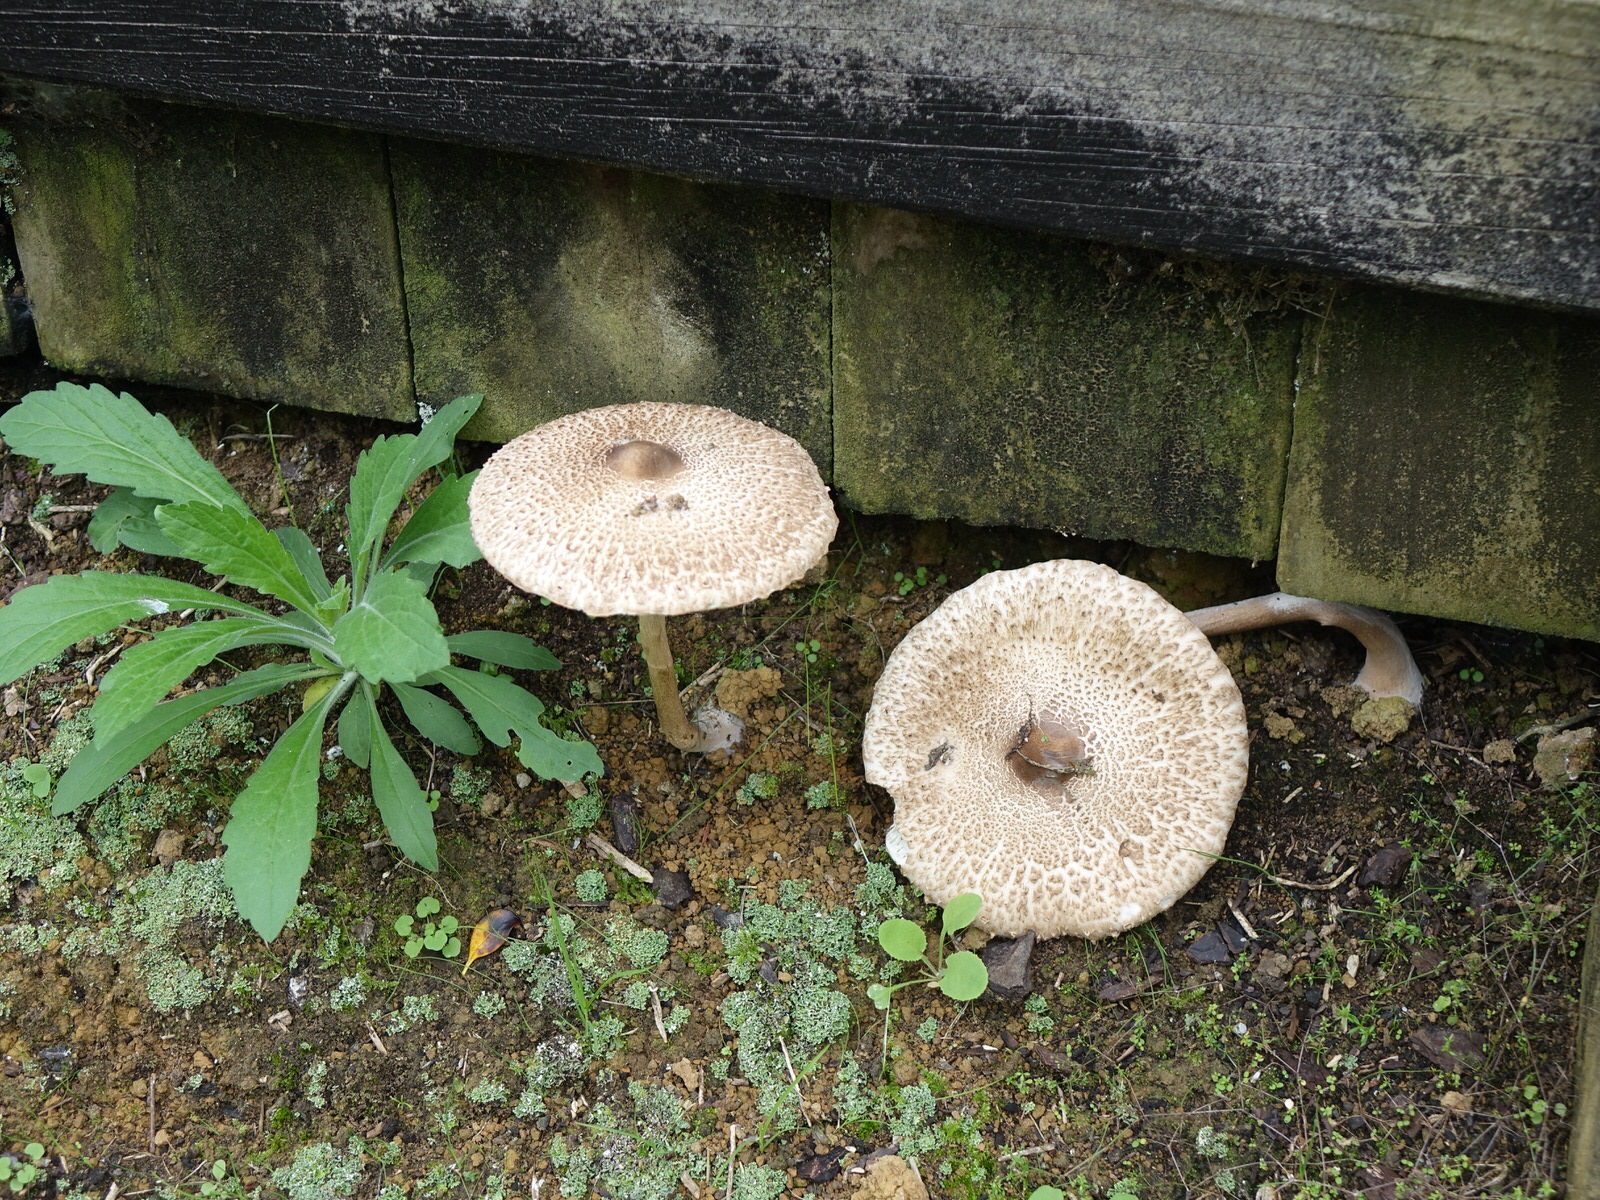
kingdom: Fungi
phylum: Basidiomycota
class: Agaricomycetes
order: Agaricales
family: Agaricaceae
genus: Macrolepiota
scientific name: Macrolepiota clelandii
